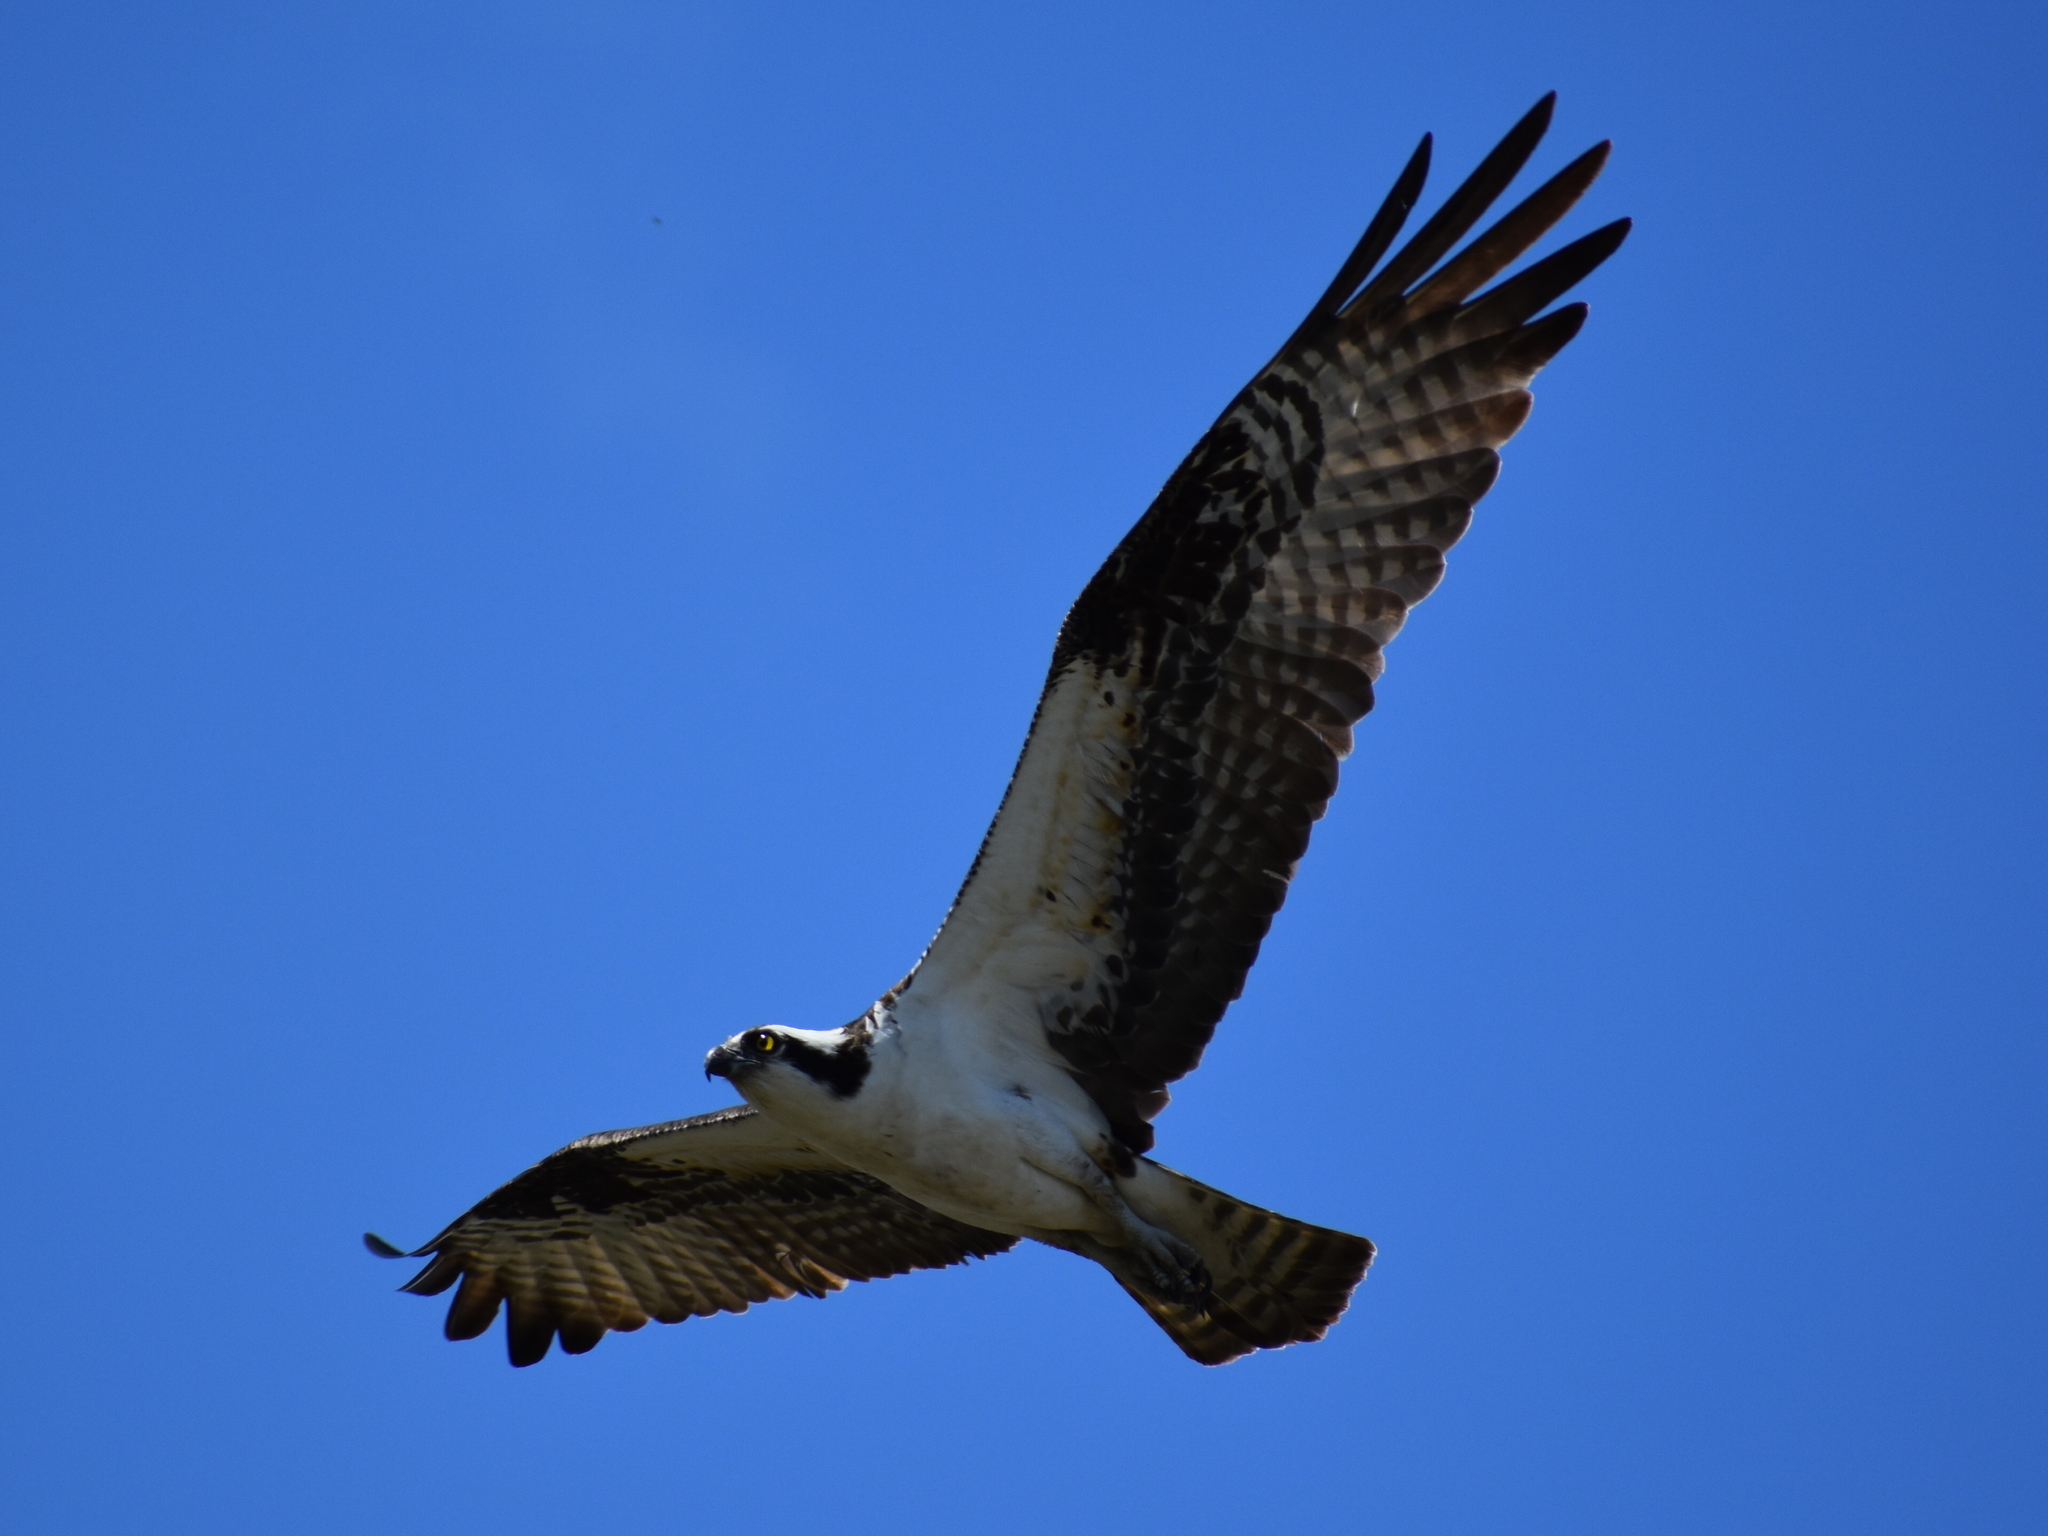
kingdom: Animalia
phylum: Chordata
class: Aves
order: Accipitriformes
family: Pandionidae
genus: Pandion
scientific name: Pandion haliaetus
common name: Osprey
